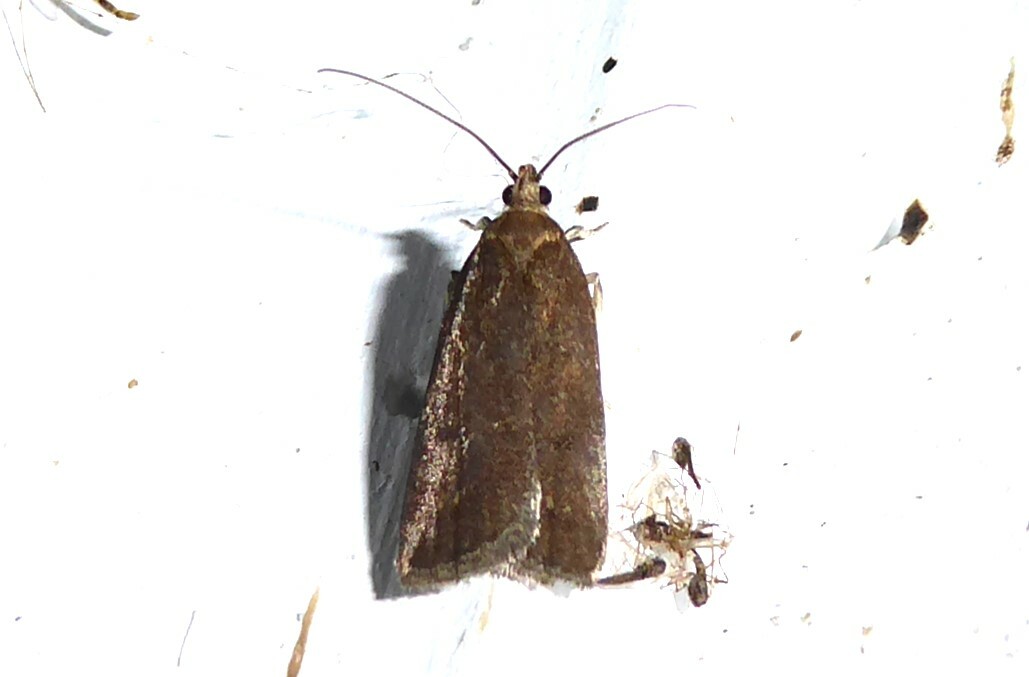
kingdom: Animalia
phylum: Arthropoda
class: Insecta
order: Lepidoptera
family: Depressariidae
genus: Phaeosaces
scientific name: Phaeosaces apocrypta
